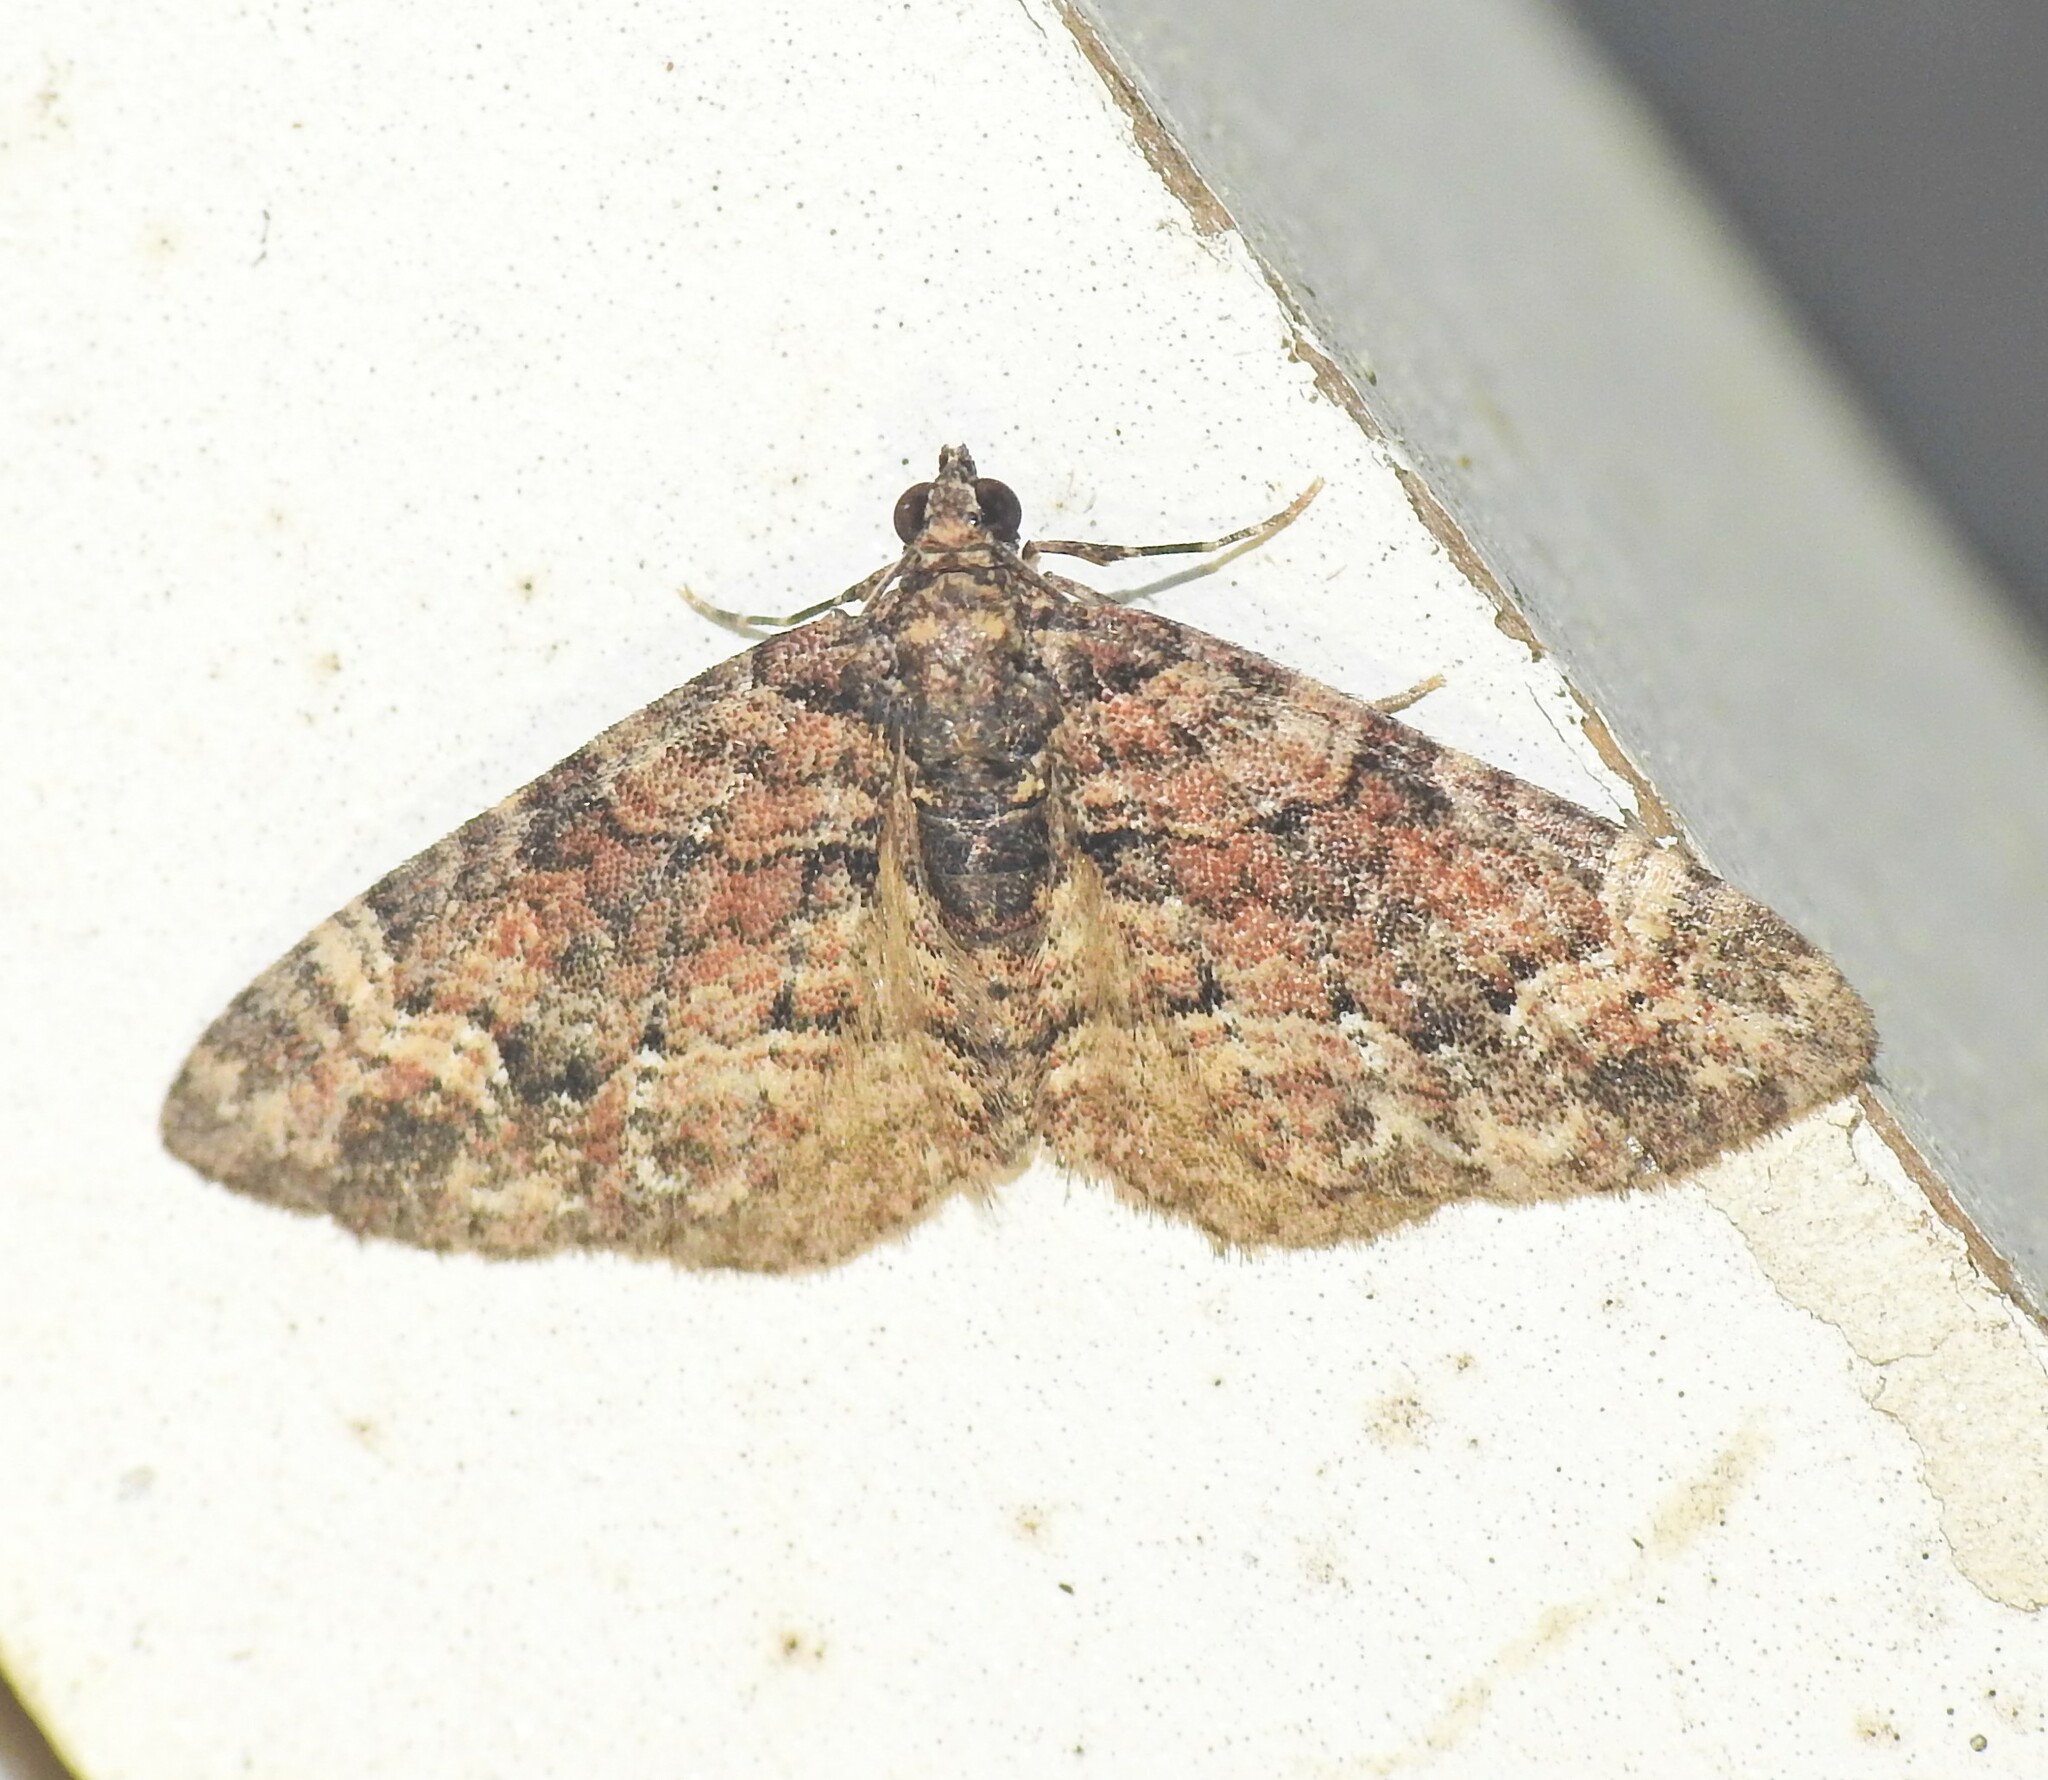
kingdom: Animalia
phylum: Arthropoda
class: Insecta
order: Lepidoptera
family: Geometridae
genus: Epyaxa
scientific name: Epyaxa sodaliata
